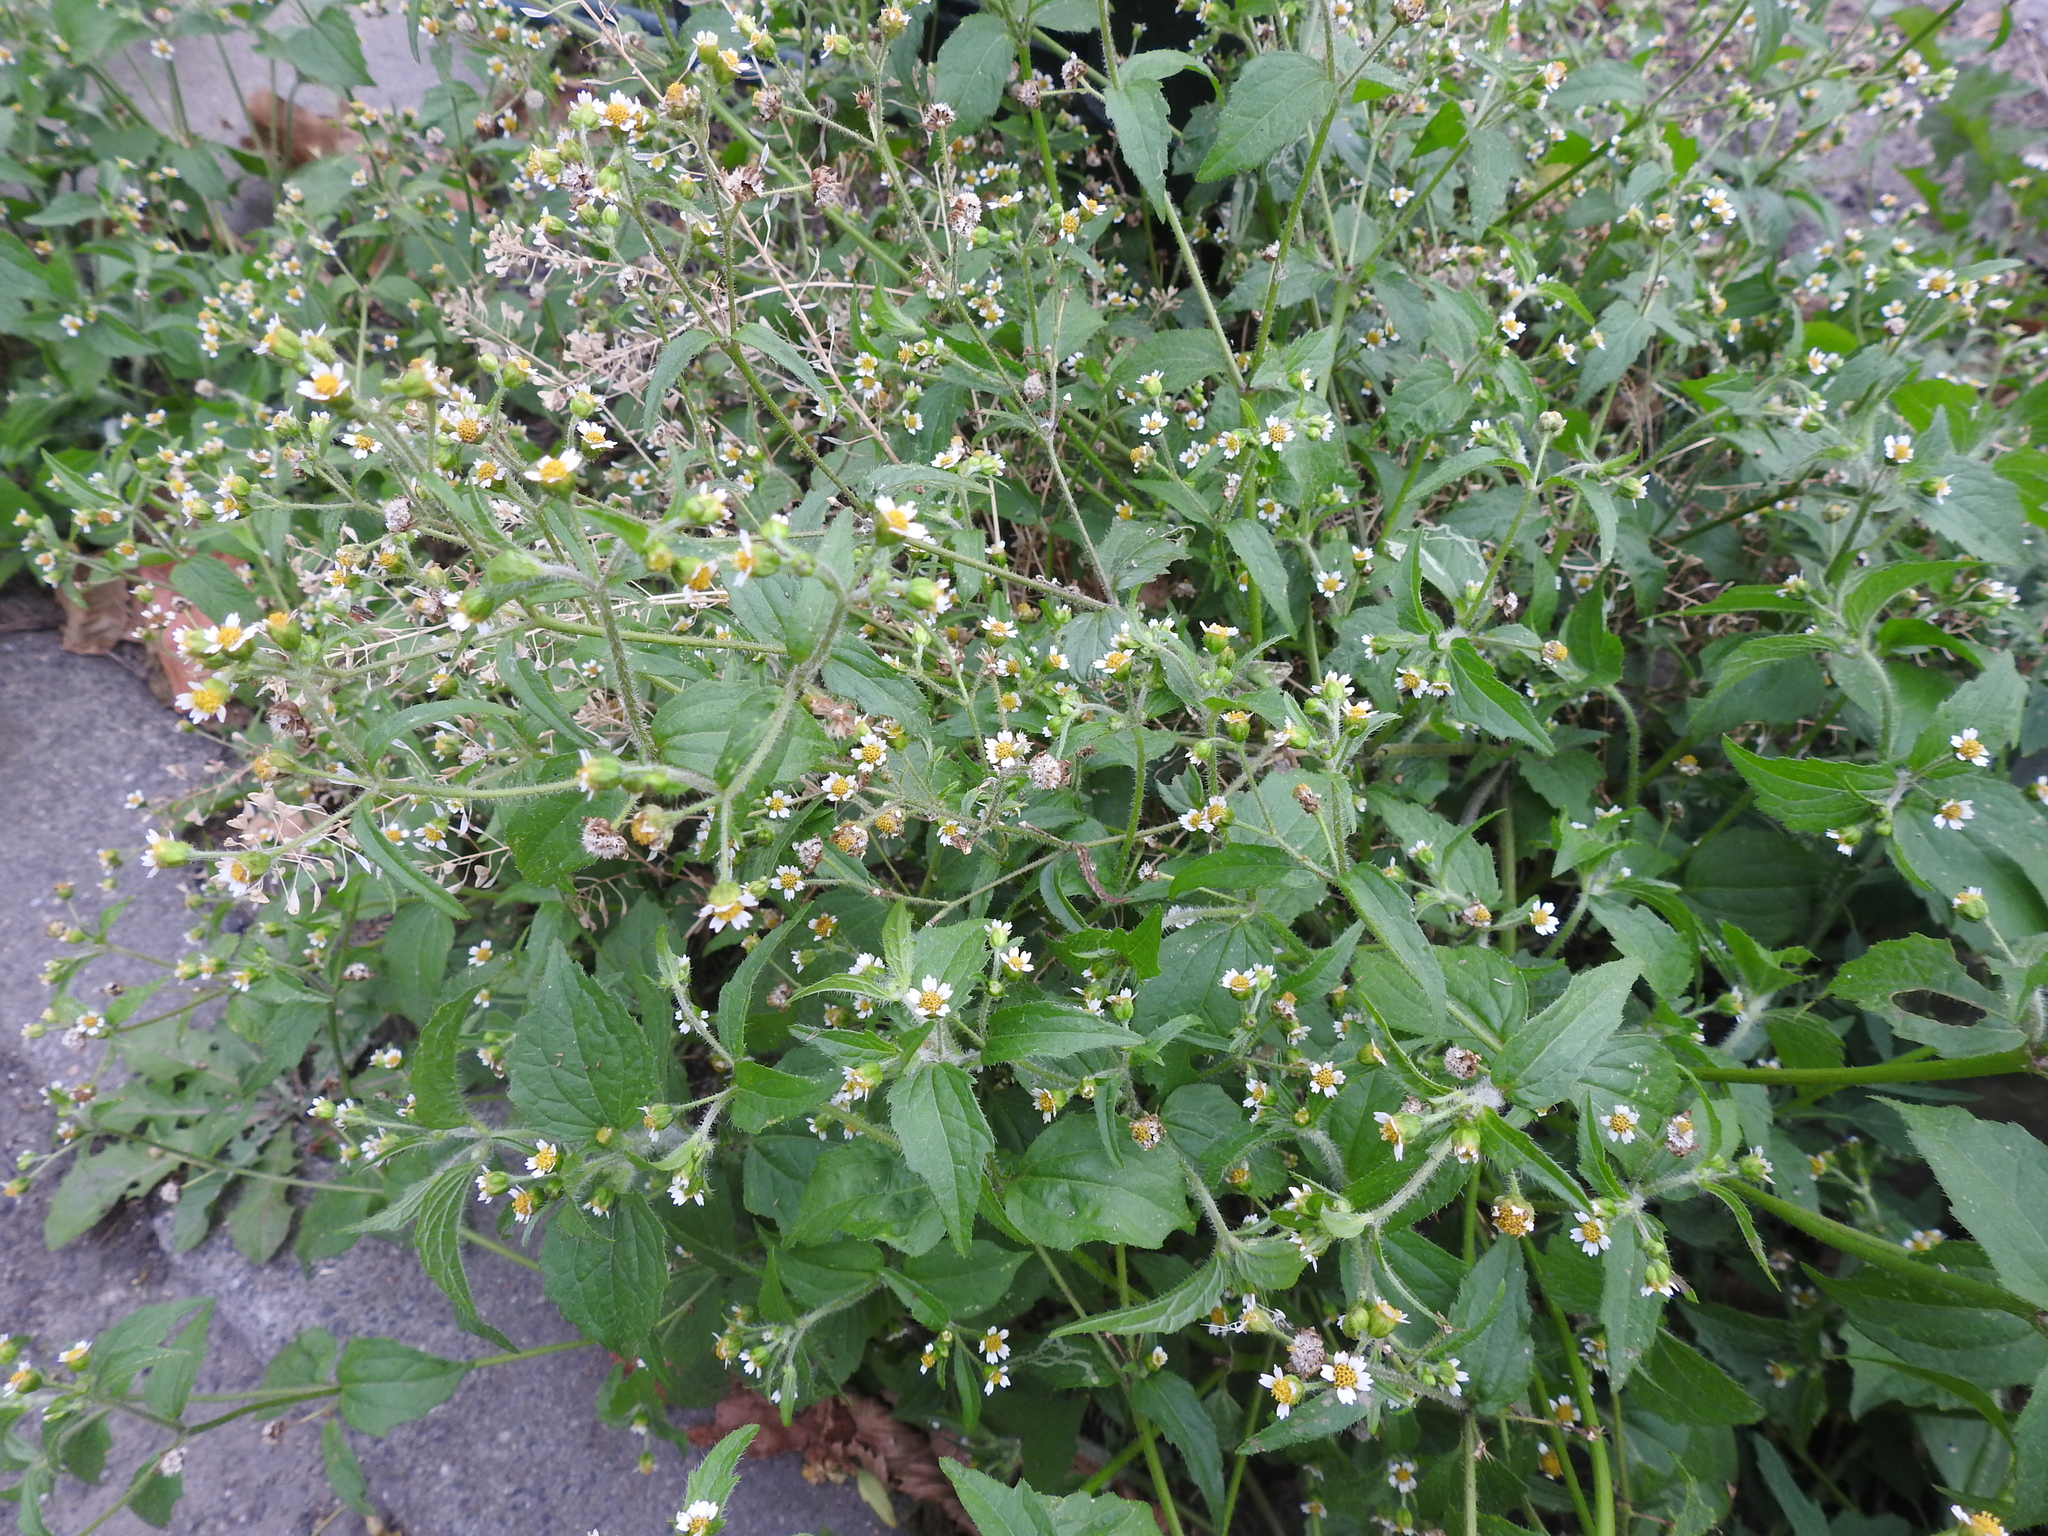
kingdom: Plantae
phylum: Tracheophyta
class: Magnoliopsida
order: Asterales
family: Asteraceae
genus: Galinsoga
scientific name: Galinsoga quadriradiata
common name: Shaggy soldier
